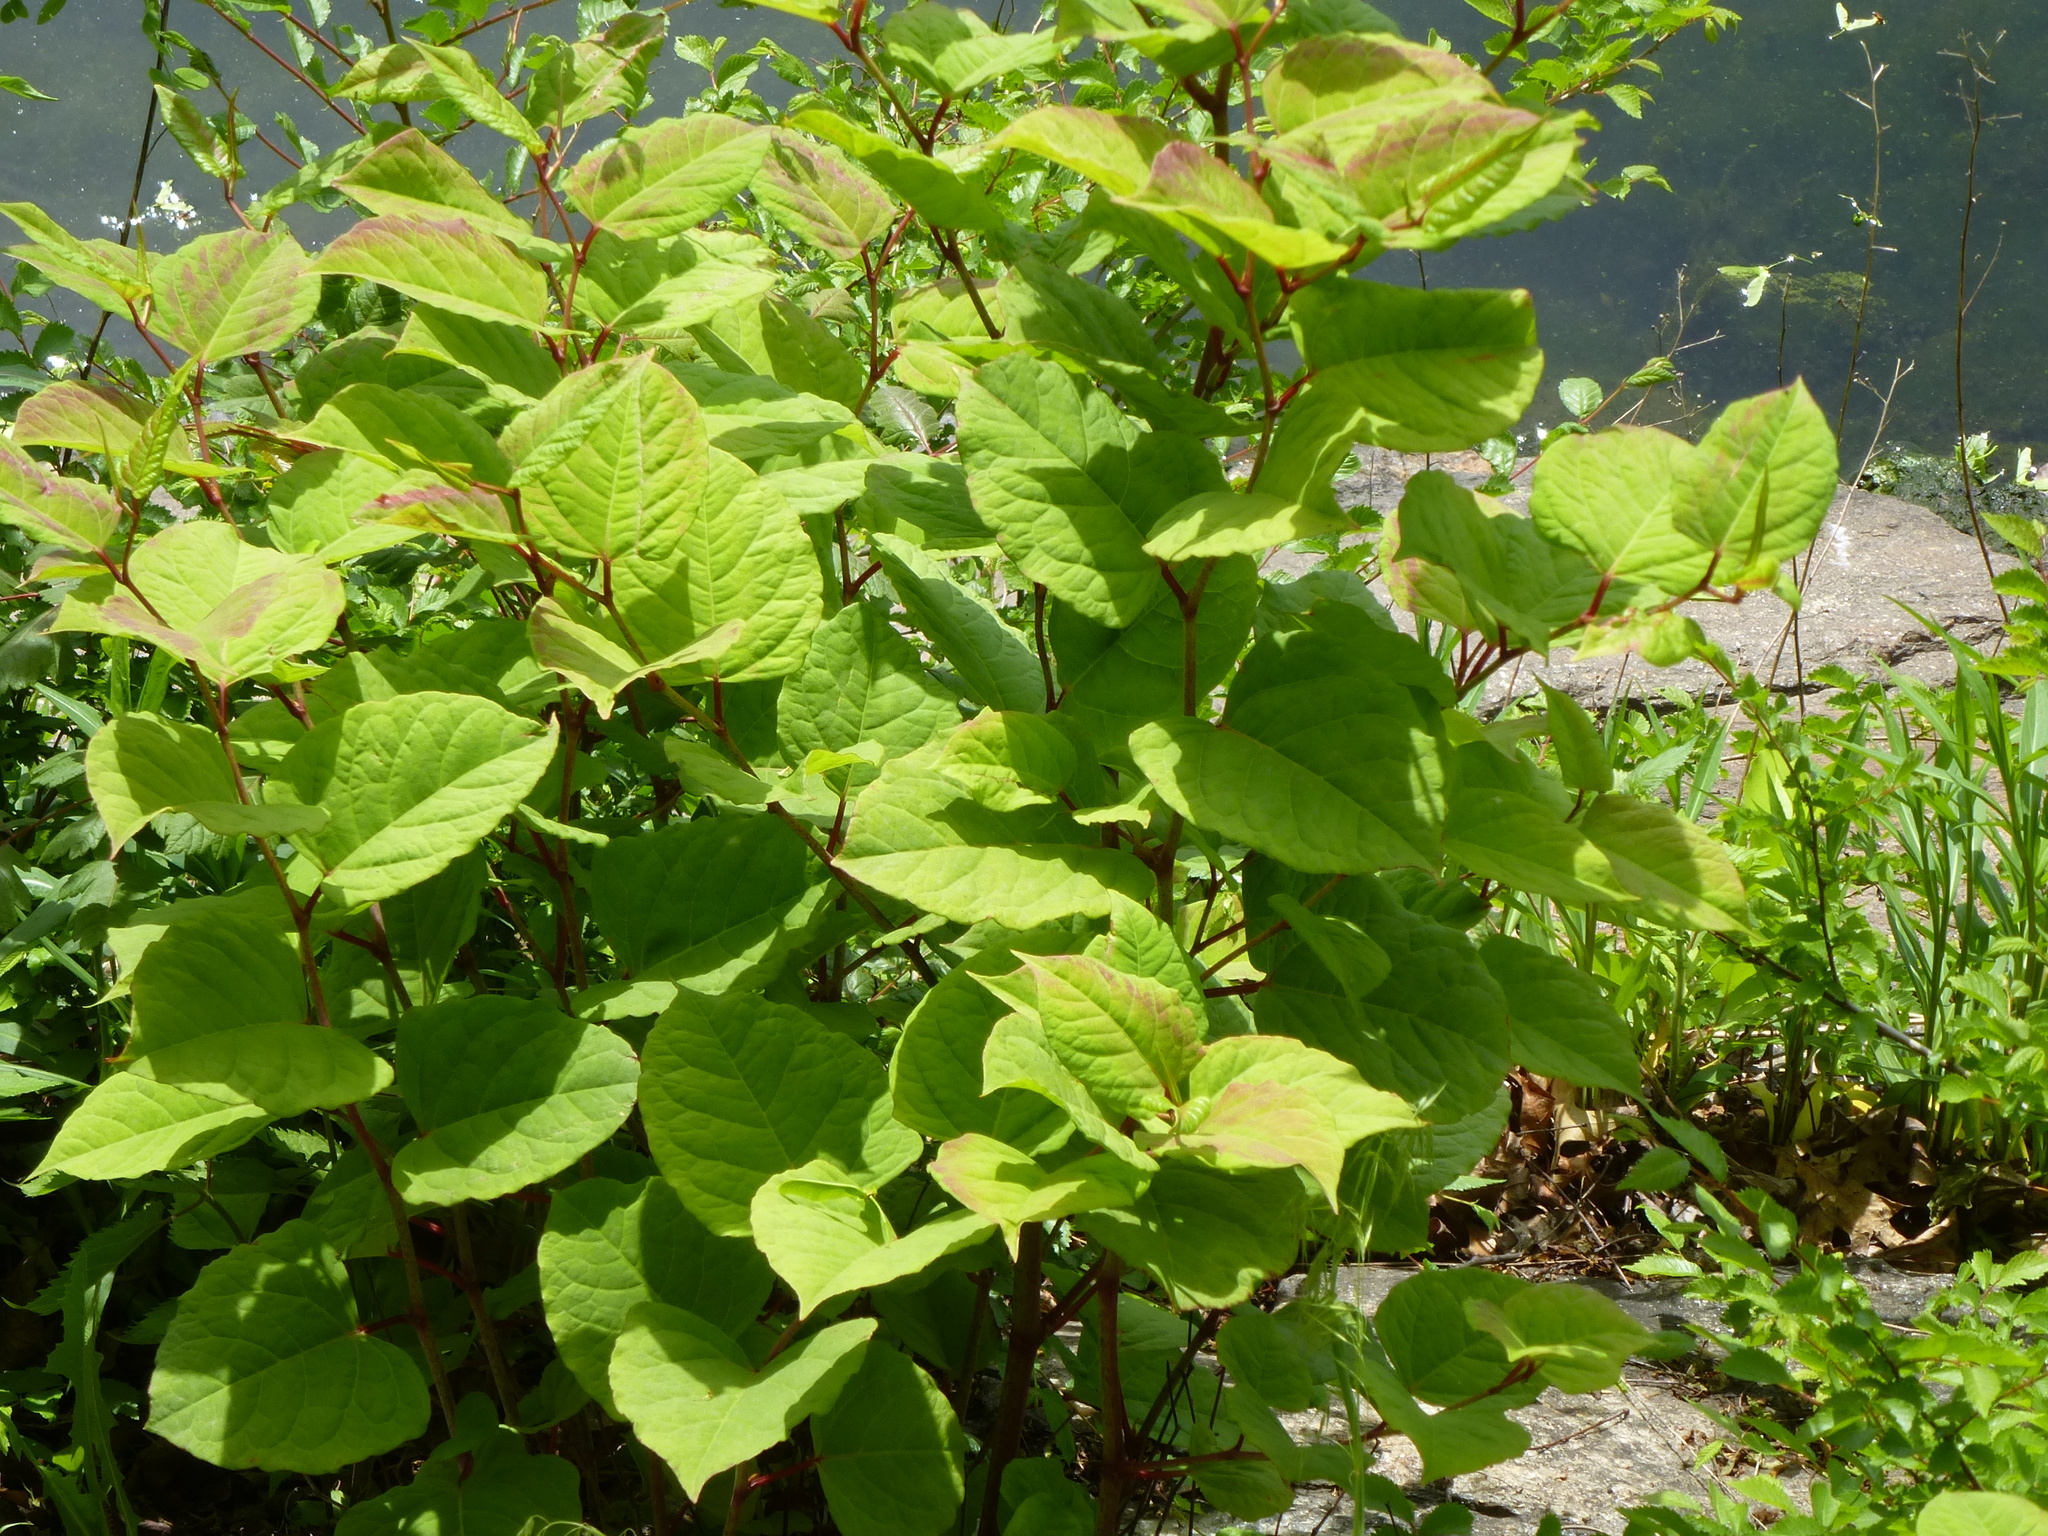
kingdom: Plantae
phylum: Tracheophyta
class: Magnoliopsida
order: Caryophyllales
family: Polygonaceae
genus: Reynoutria
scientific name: Reynoutria japonica
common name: Japanese knotweed
